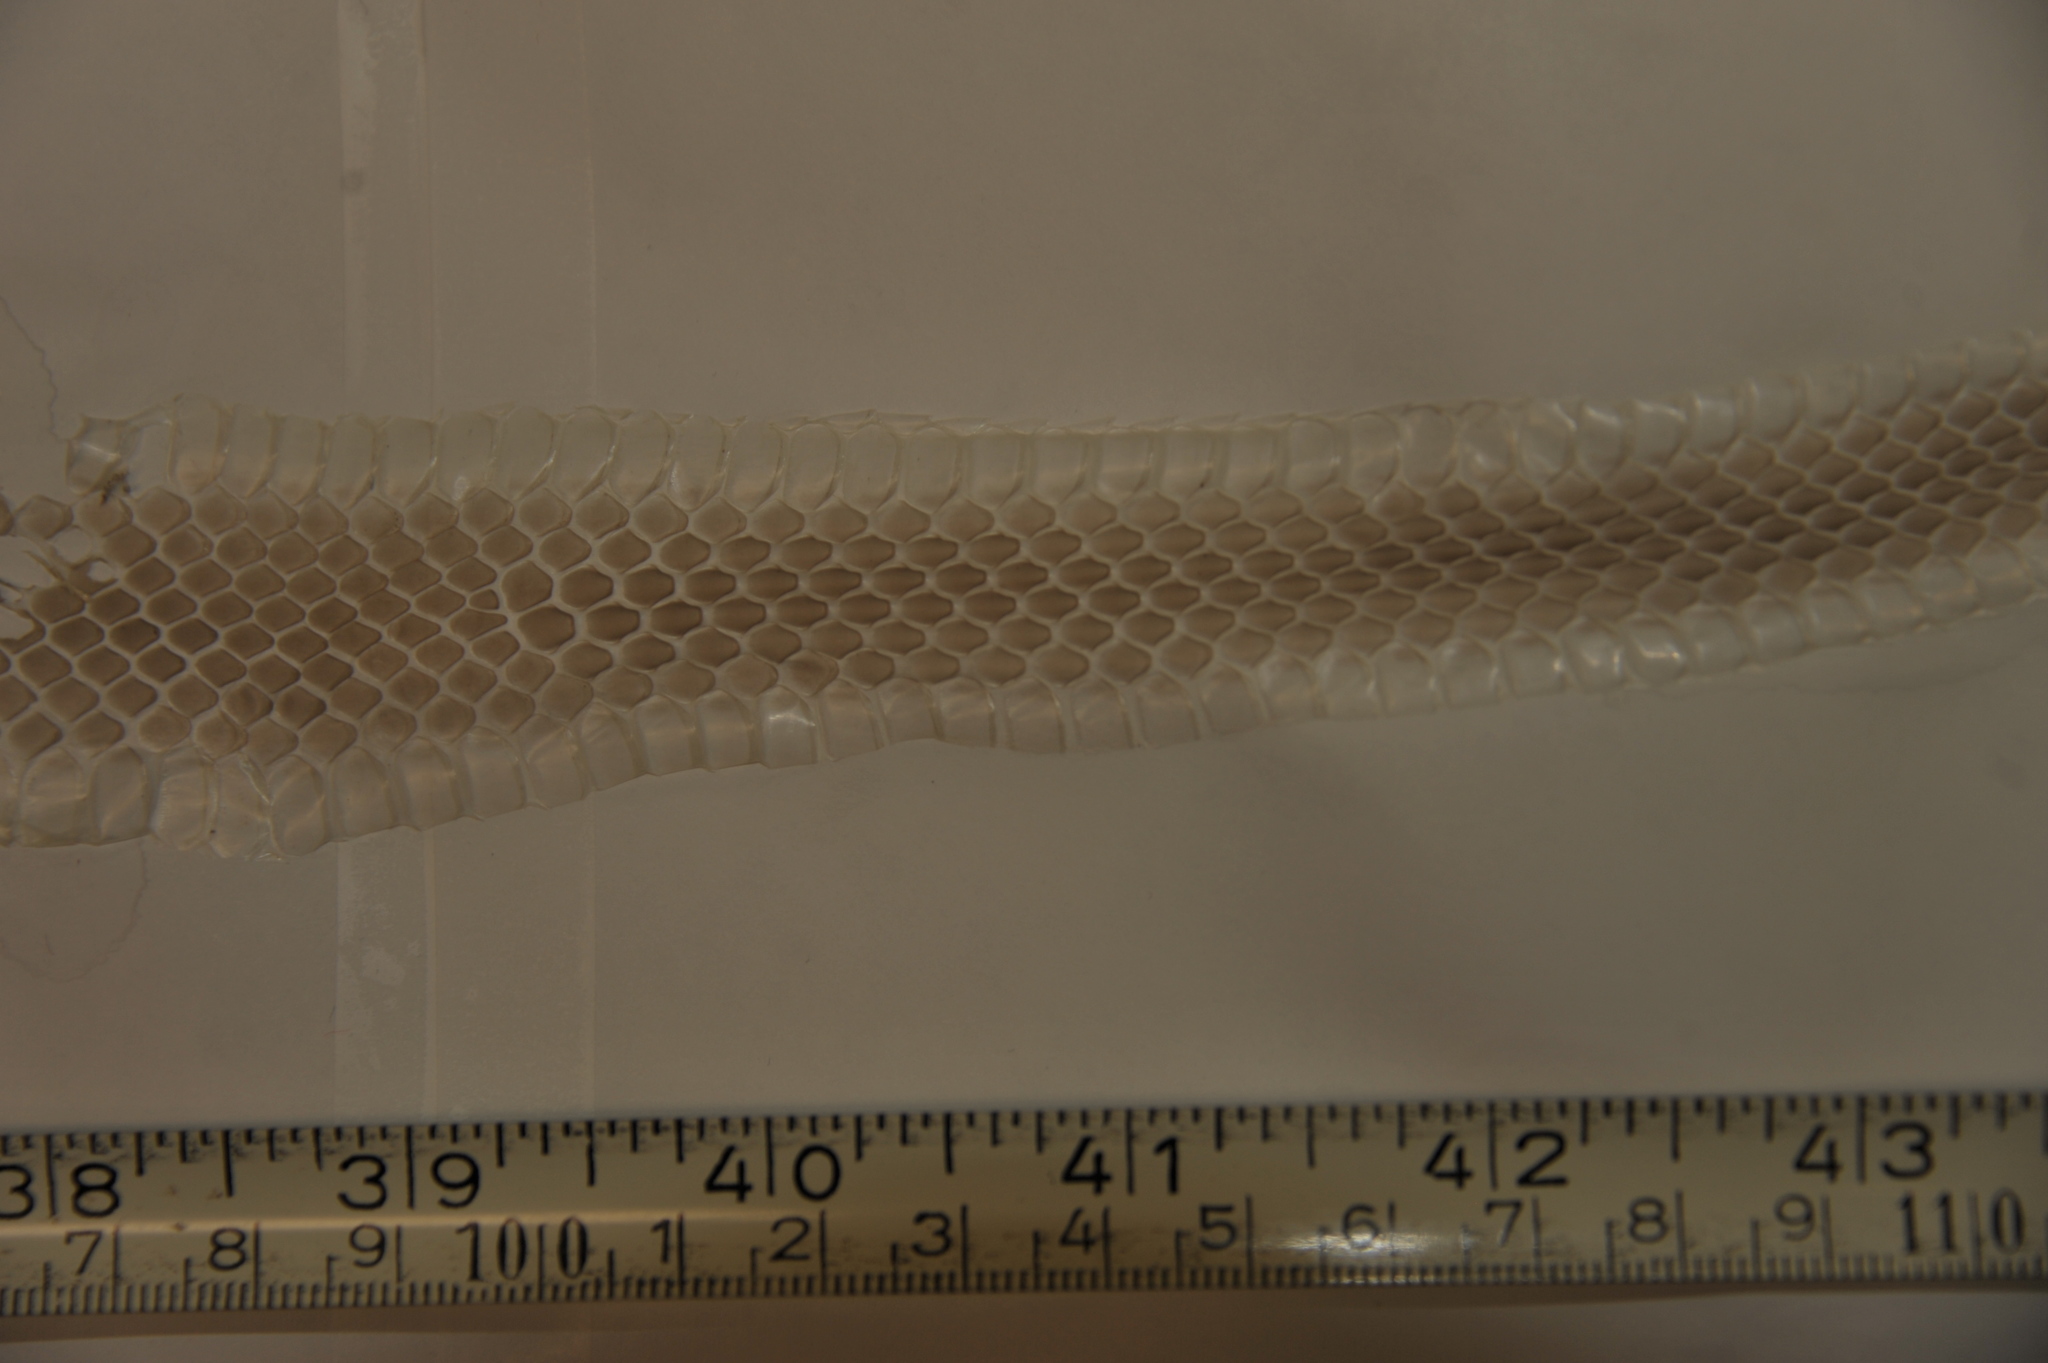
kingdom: Animalia
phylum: Chordata
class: Squamata
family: Colubridae
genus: Coluber
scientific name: Coluber constrictor
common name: Eastern racer
